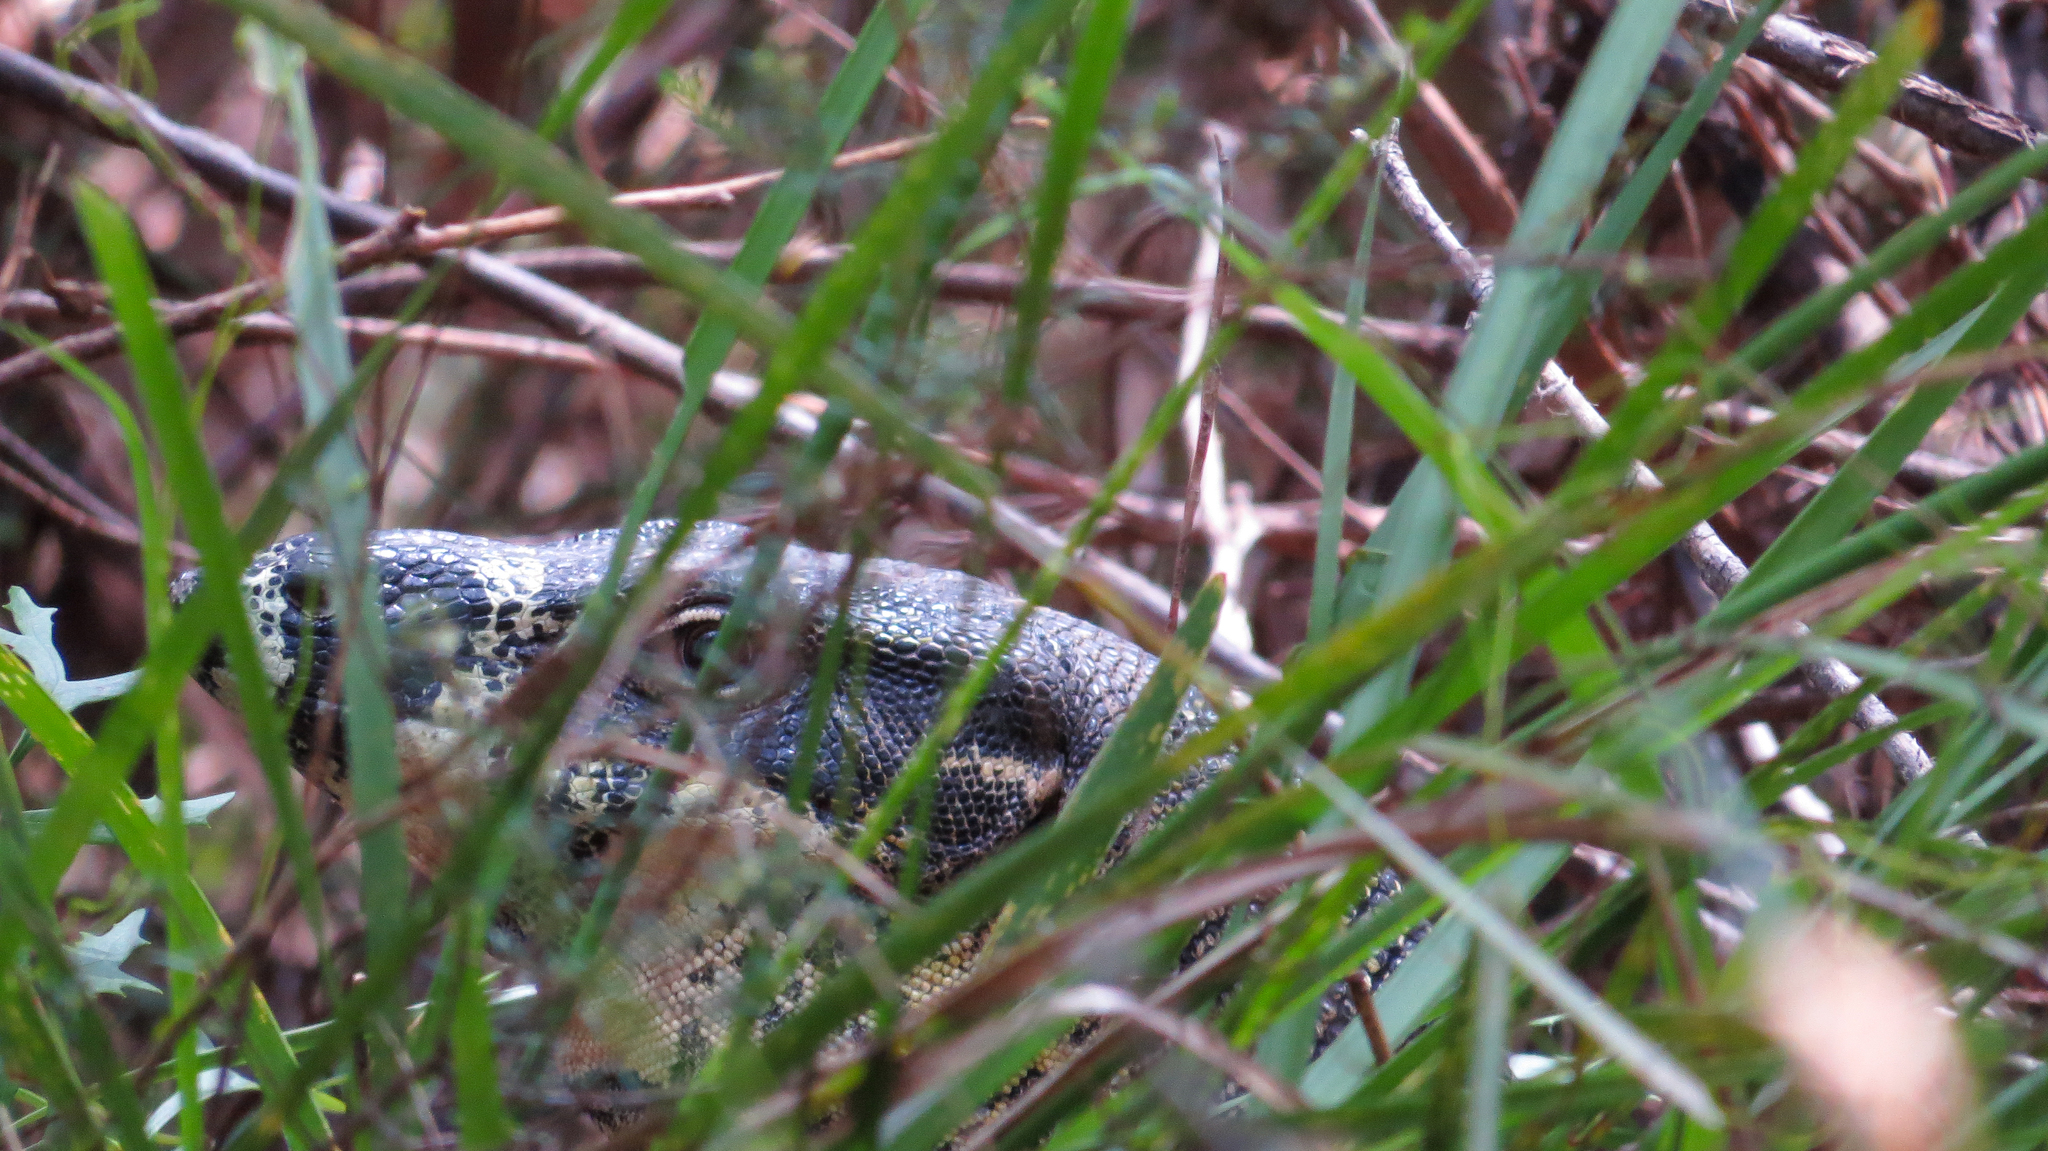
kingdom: Animalia
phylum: Chordata
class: Squamata
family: Varanidae
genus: Varanus
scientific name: Varanus varius
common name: Lace monitor
